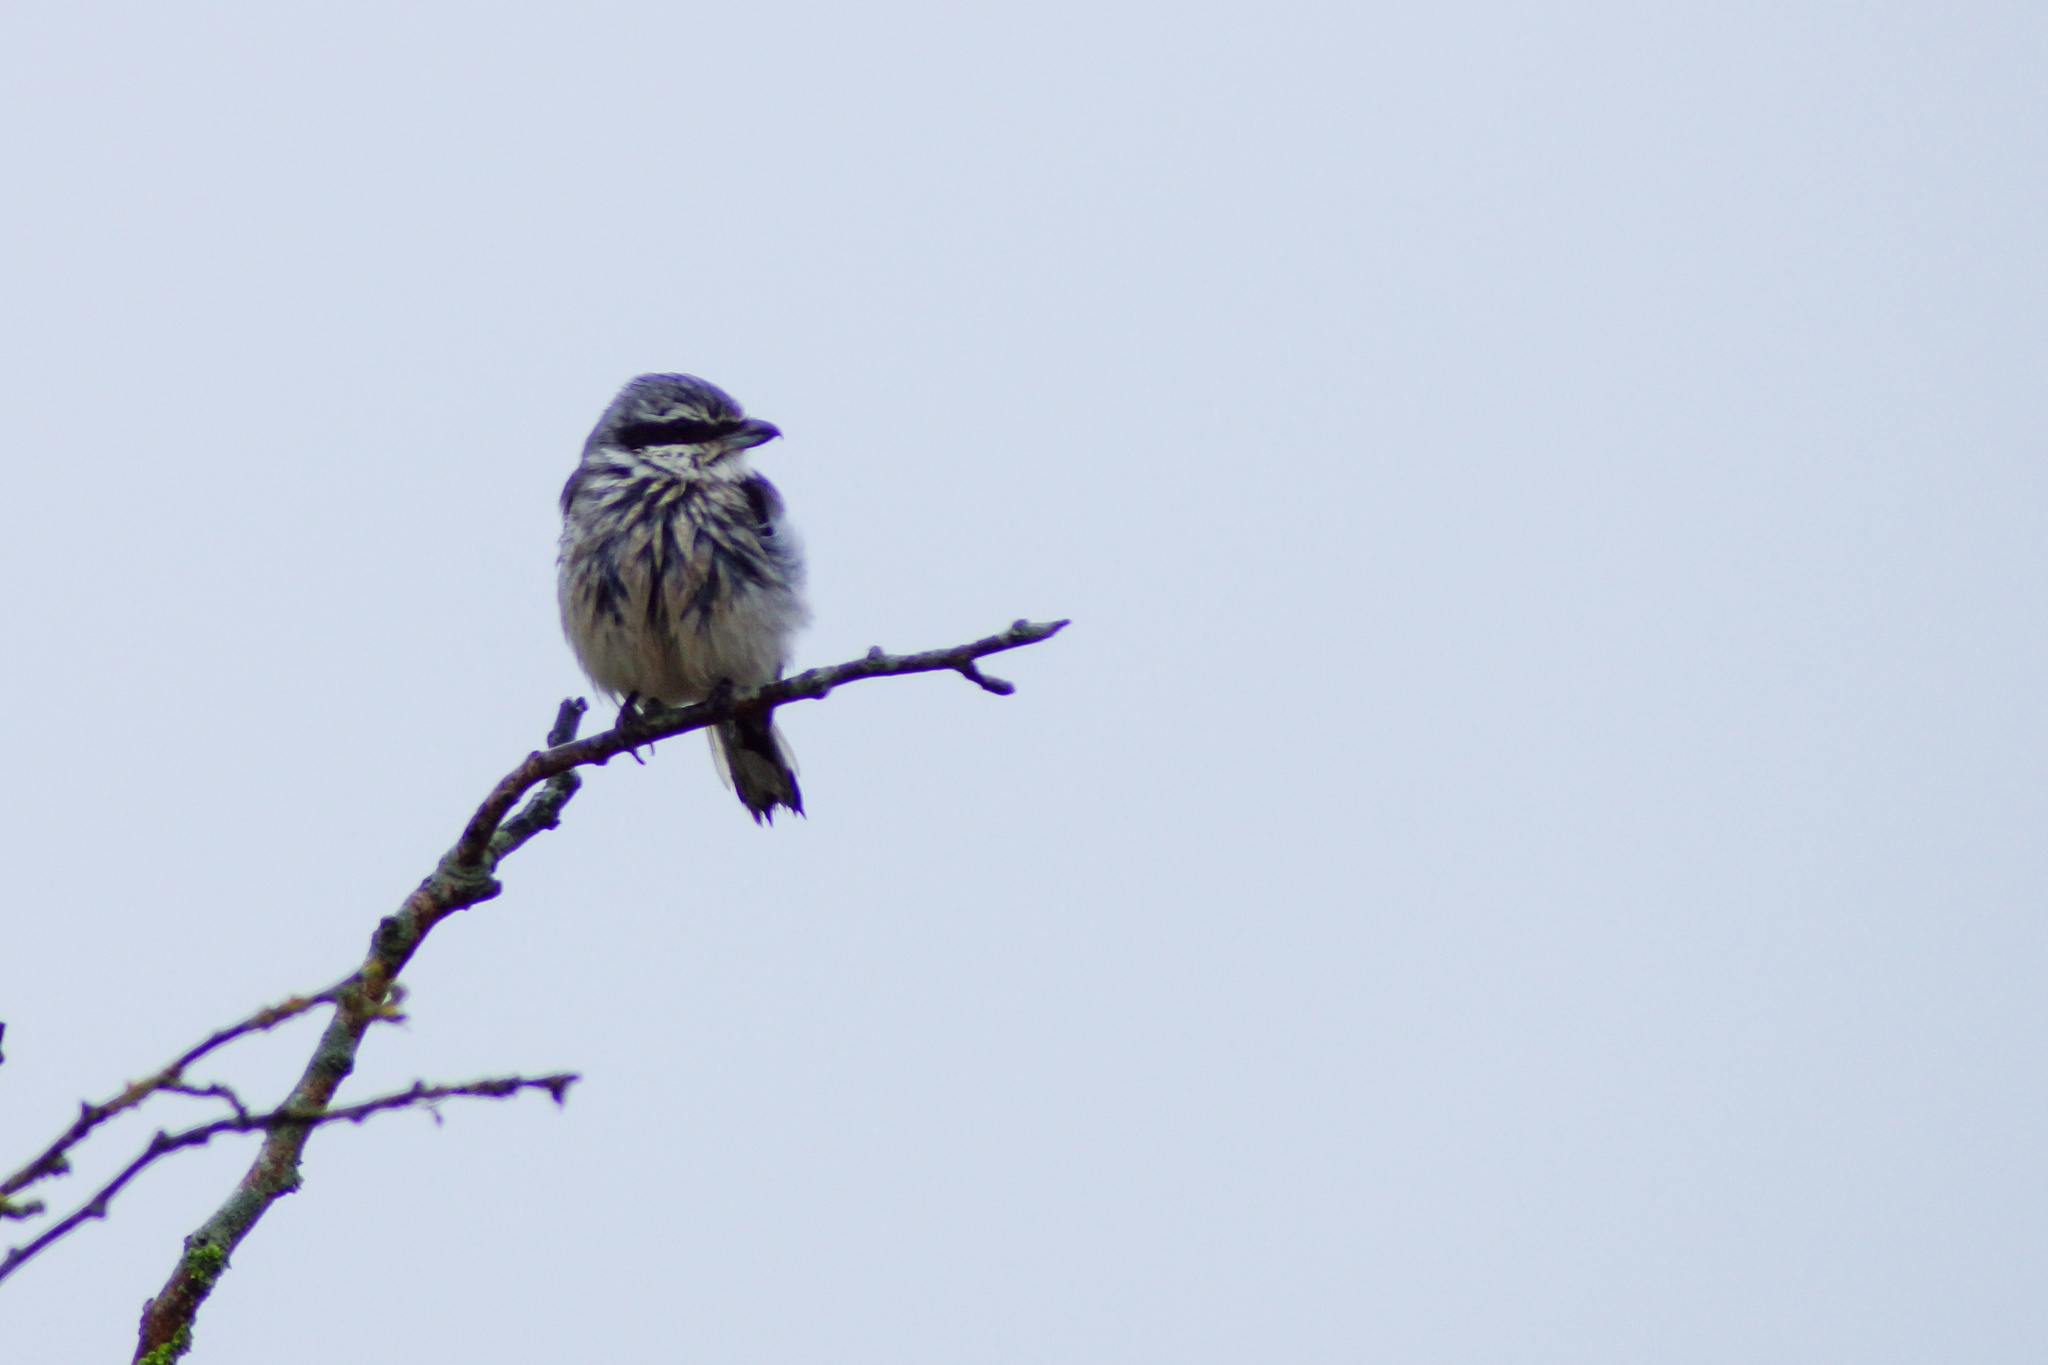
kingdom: Animalia
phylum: Chordata
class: Aves
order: Passeriformes
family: Laniidae
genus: Lanius
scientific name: Lanius excubitor
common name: Great grey shrike
